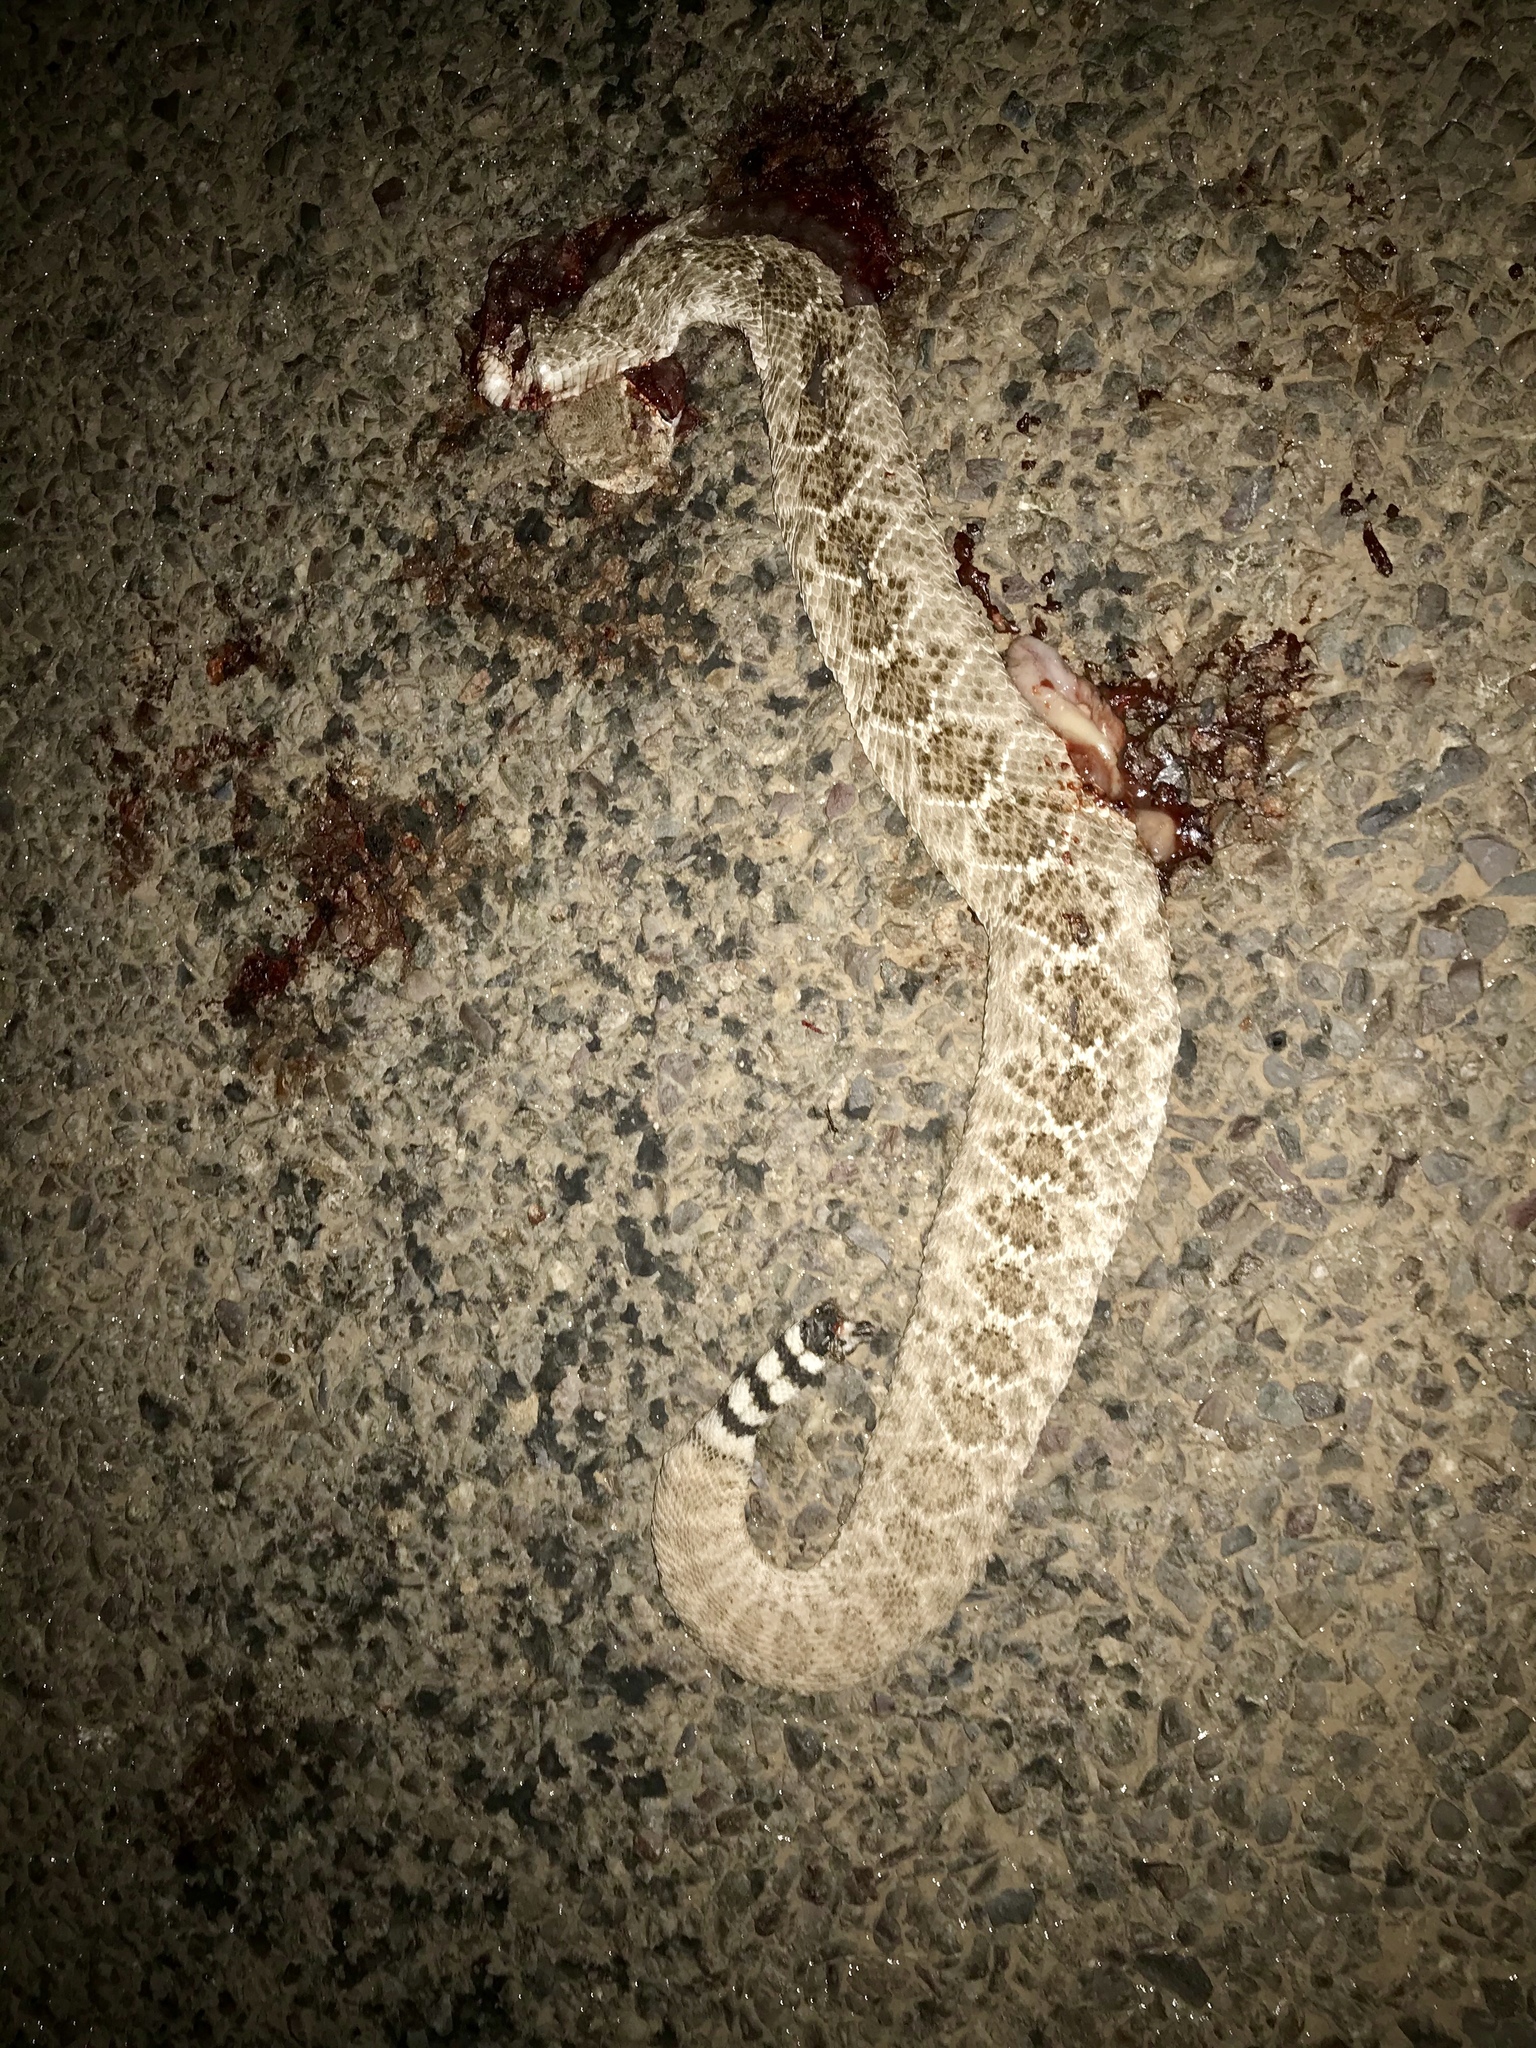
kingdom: Animalia
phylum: Chordata
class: Squamata
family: Viperidae
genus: Crotalus
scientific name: Crotalus atrox
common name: Western diamond-backed rattlesnake
